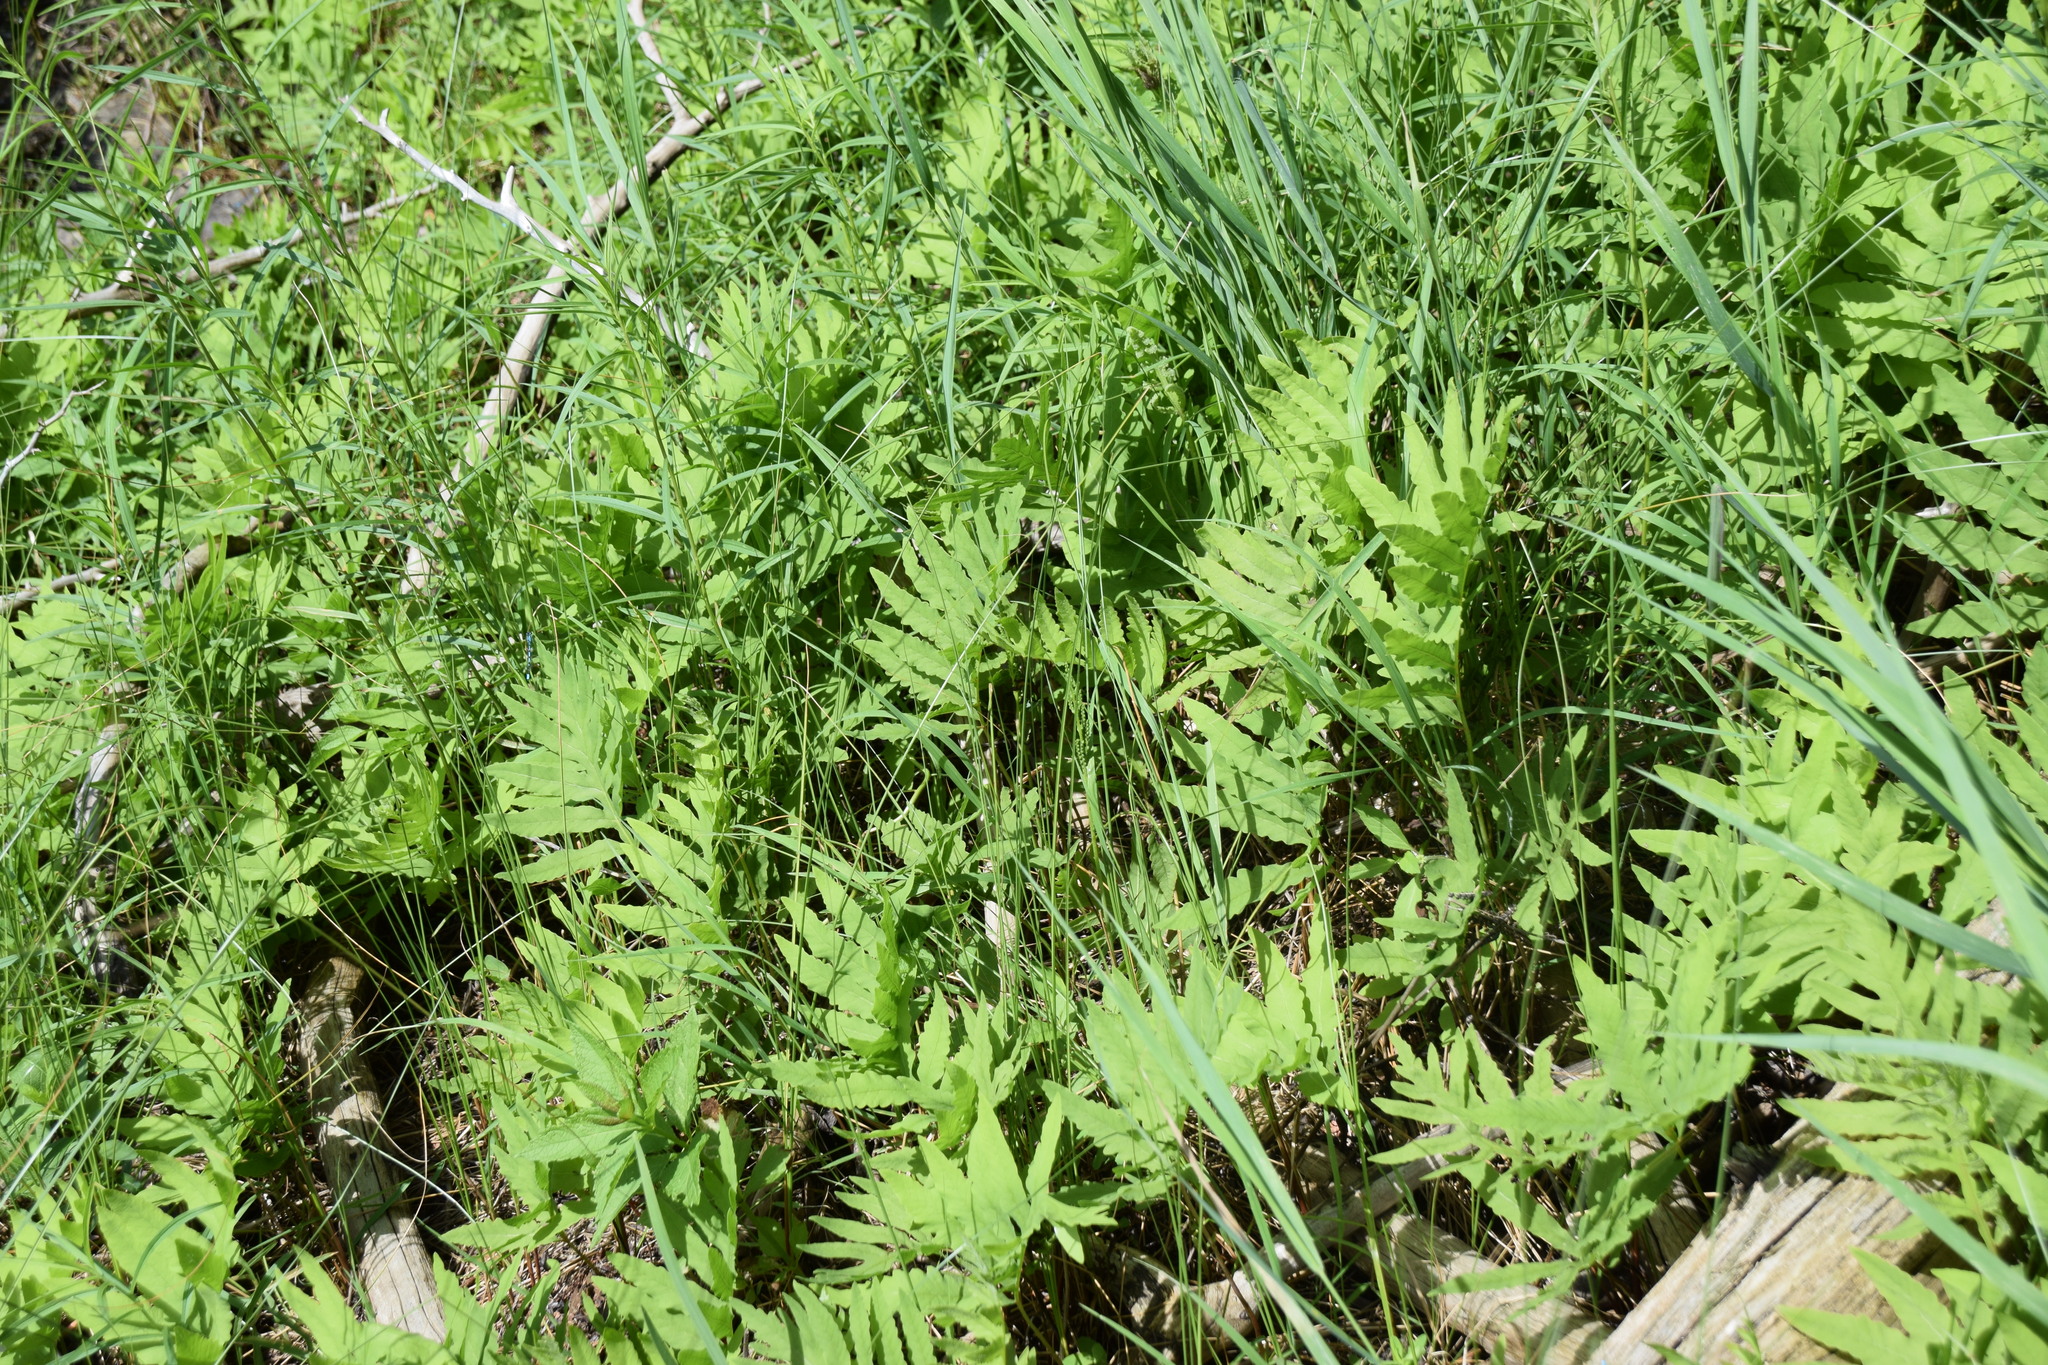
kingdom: Plantae
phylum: Tracheophyta
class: Polypodiopsida
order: Polypodiales
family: Onocleaceae
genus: Onoclea
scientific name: Onoclea sensibilis
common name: Sensitive fern
